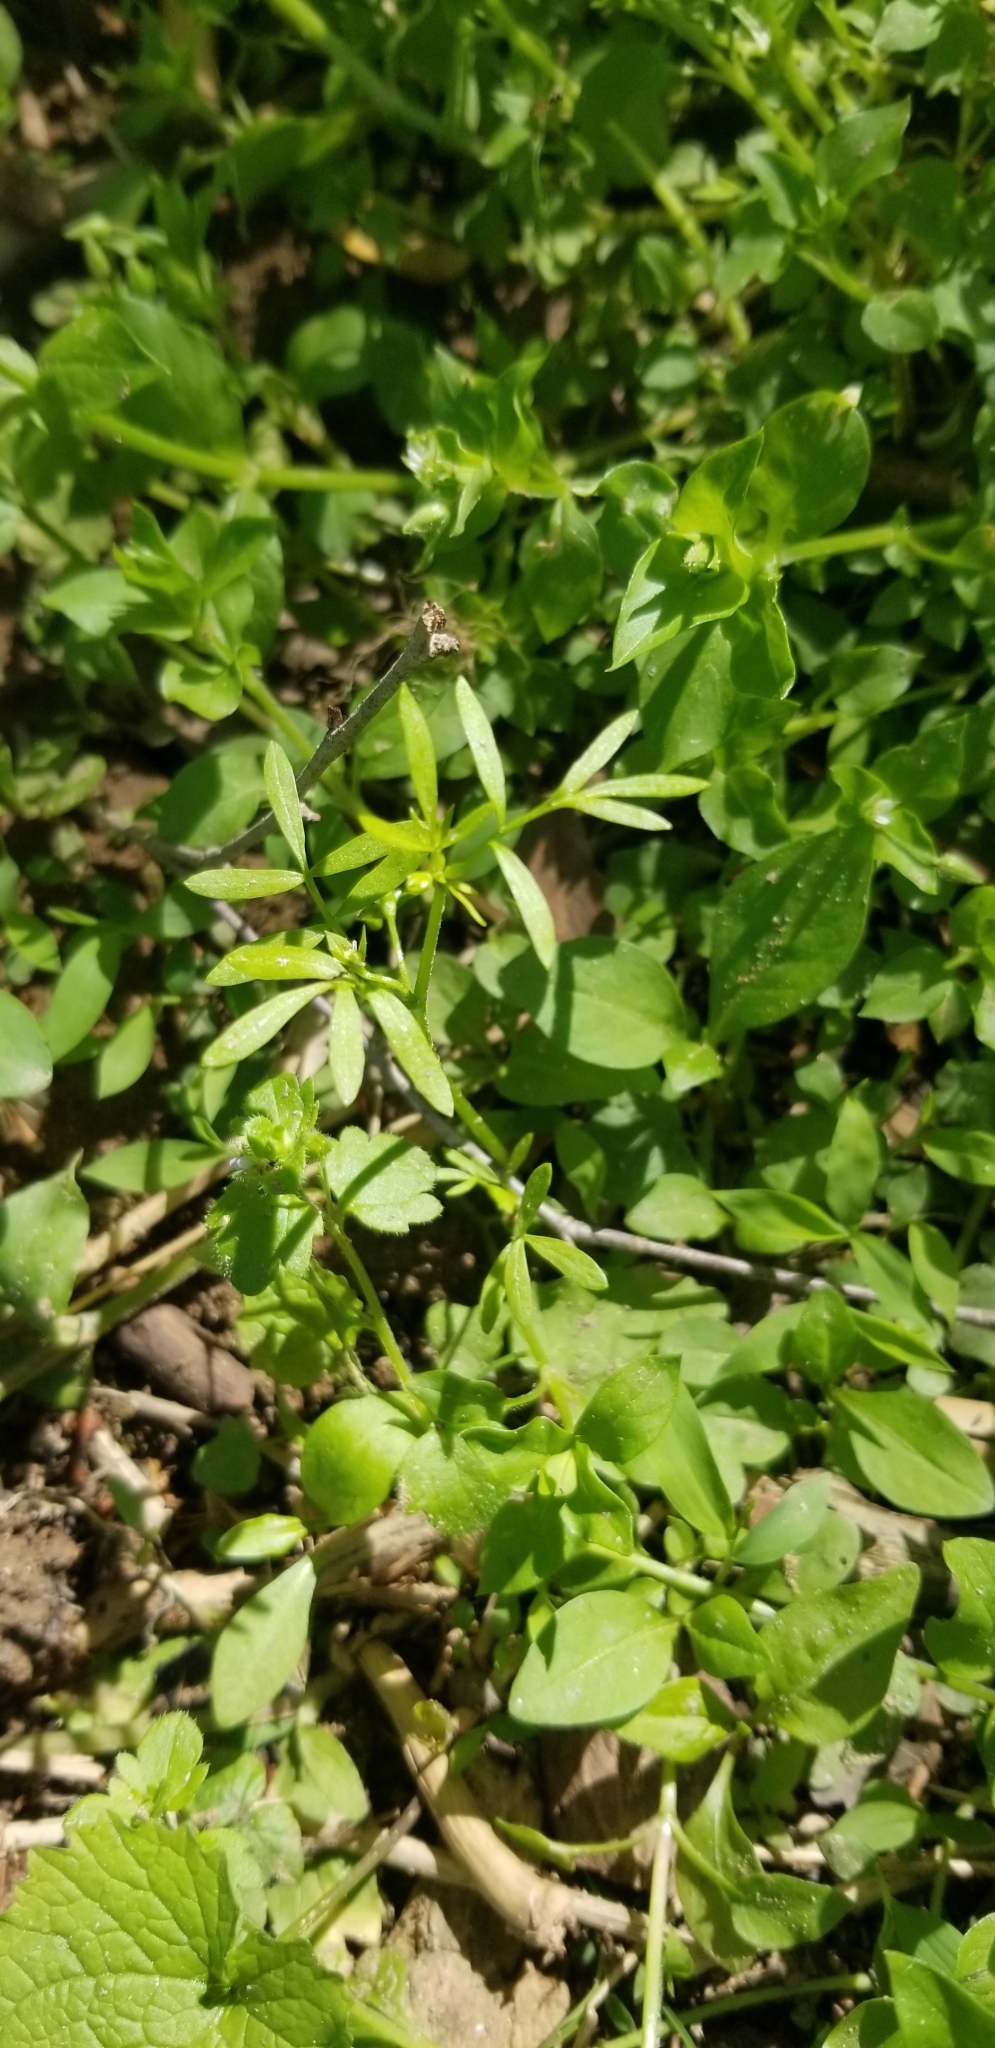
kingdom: Plantae
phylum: Tracheophyta
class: Magnoliopsida
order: Brassicales
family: Limnanthaceae
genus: Floerkea
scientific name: Floerkea proserpinacoides
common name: False mermaid
